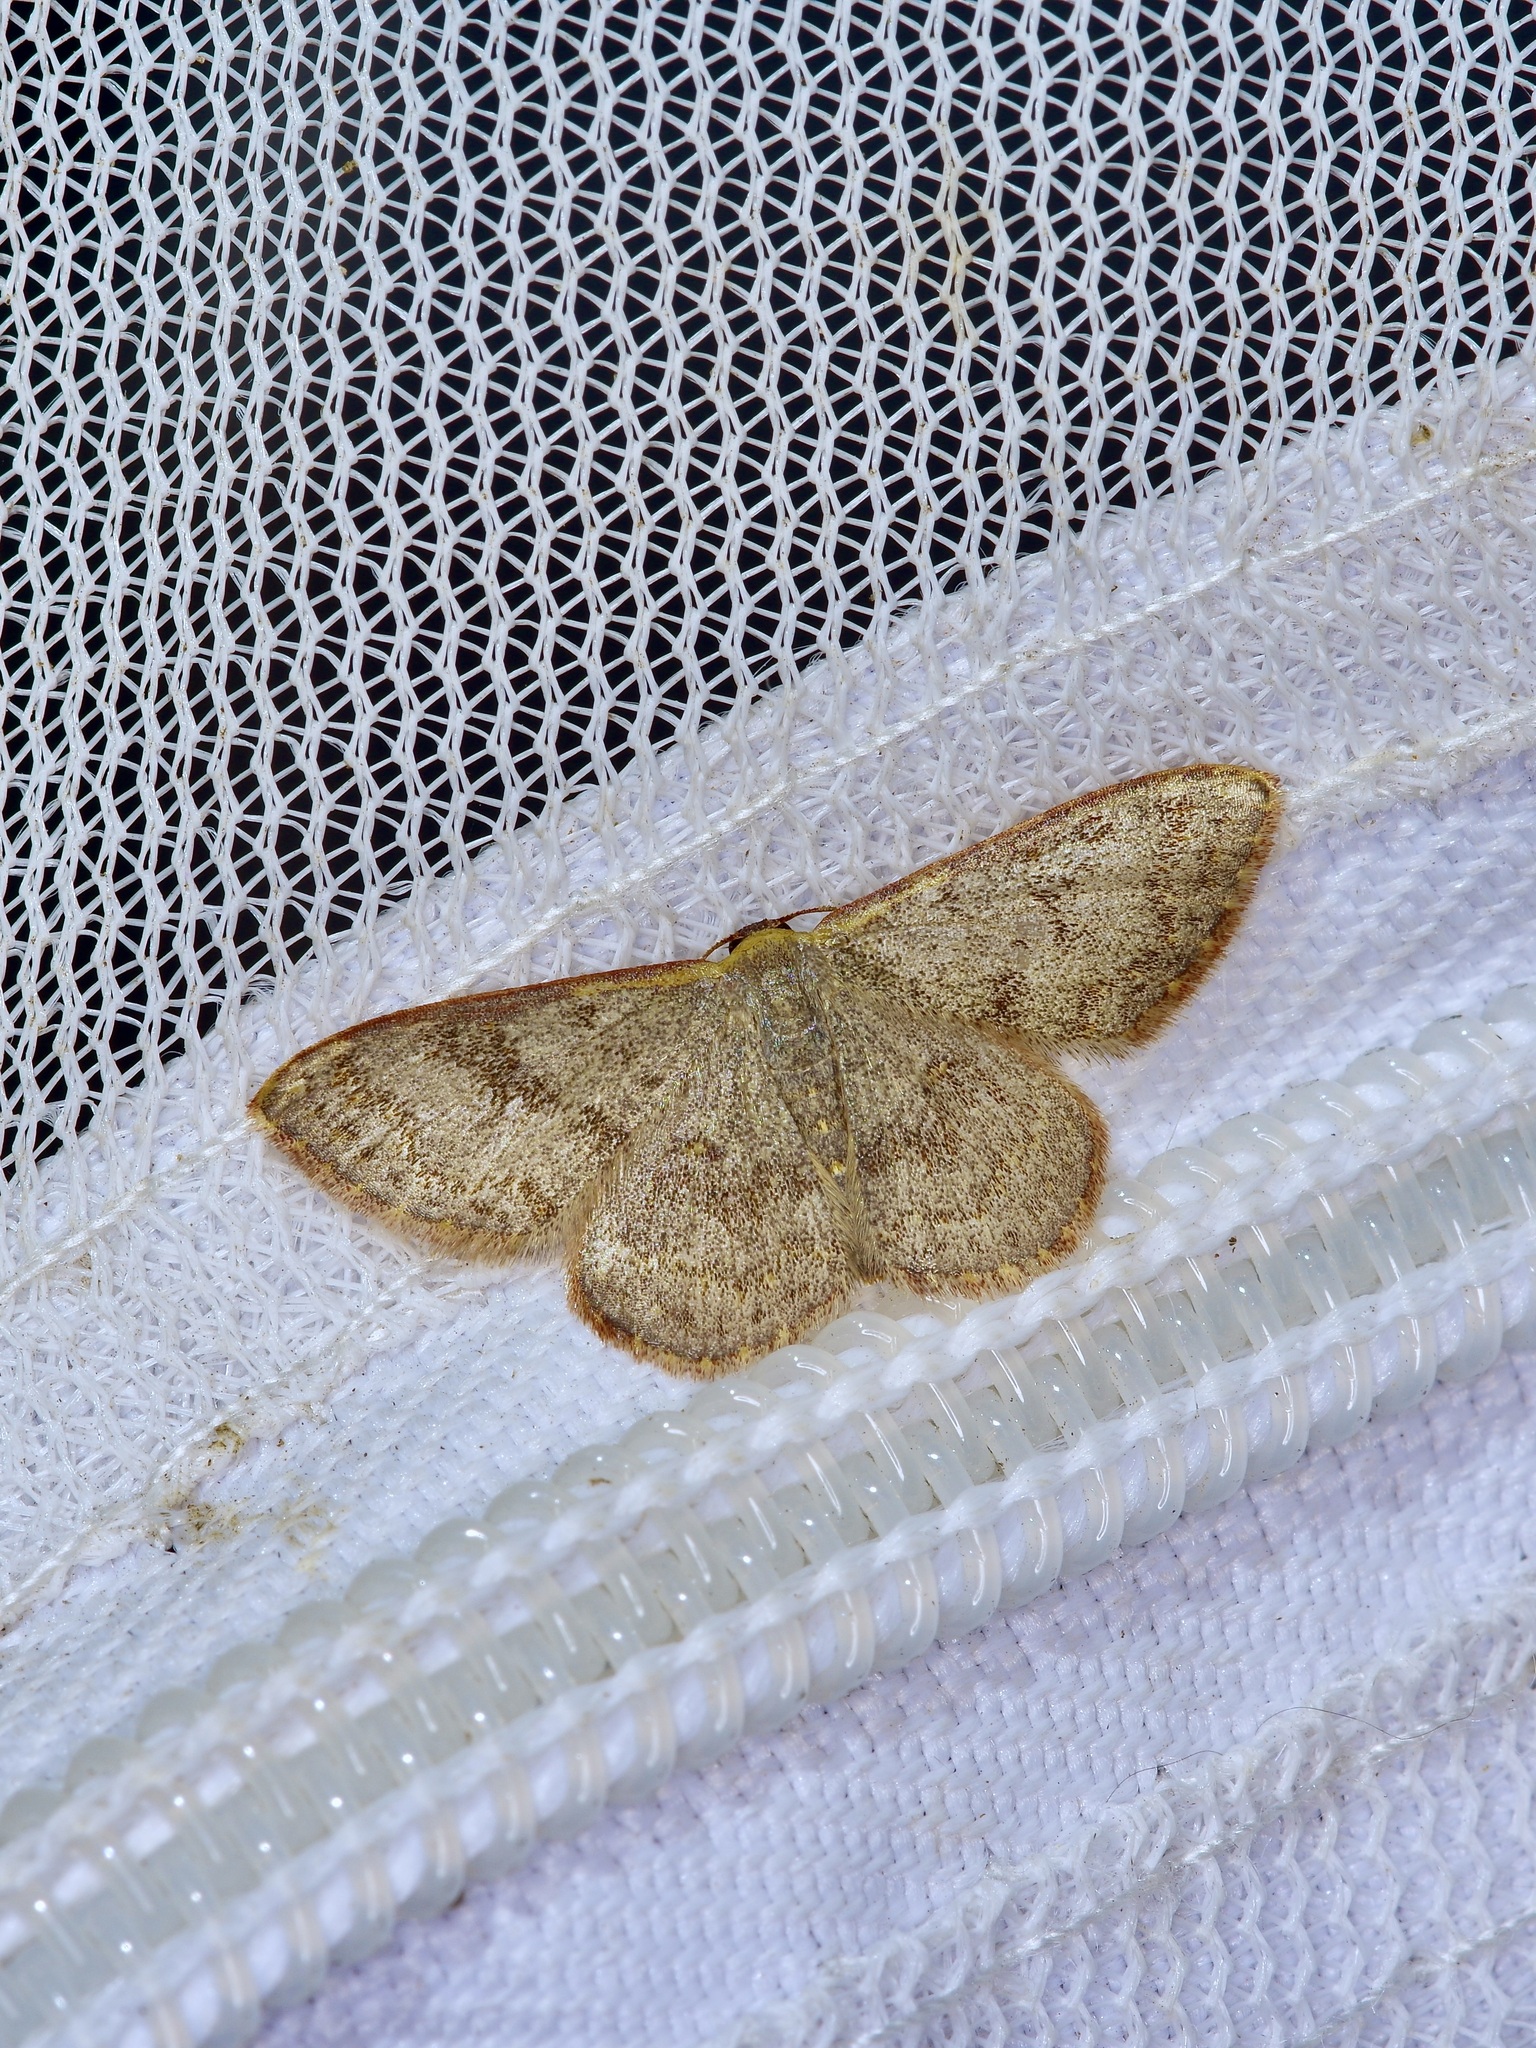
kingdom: Animalia
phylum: Arthropoda
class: Insecta
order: Lepidoptera
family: Geometridae
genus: Leptostales
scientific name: Leptostales pannaria
